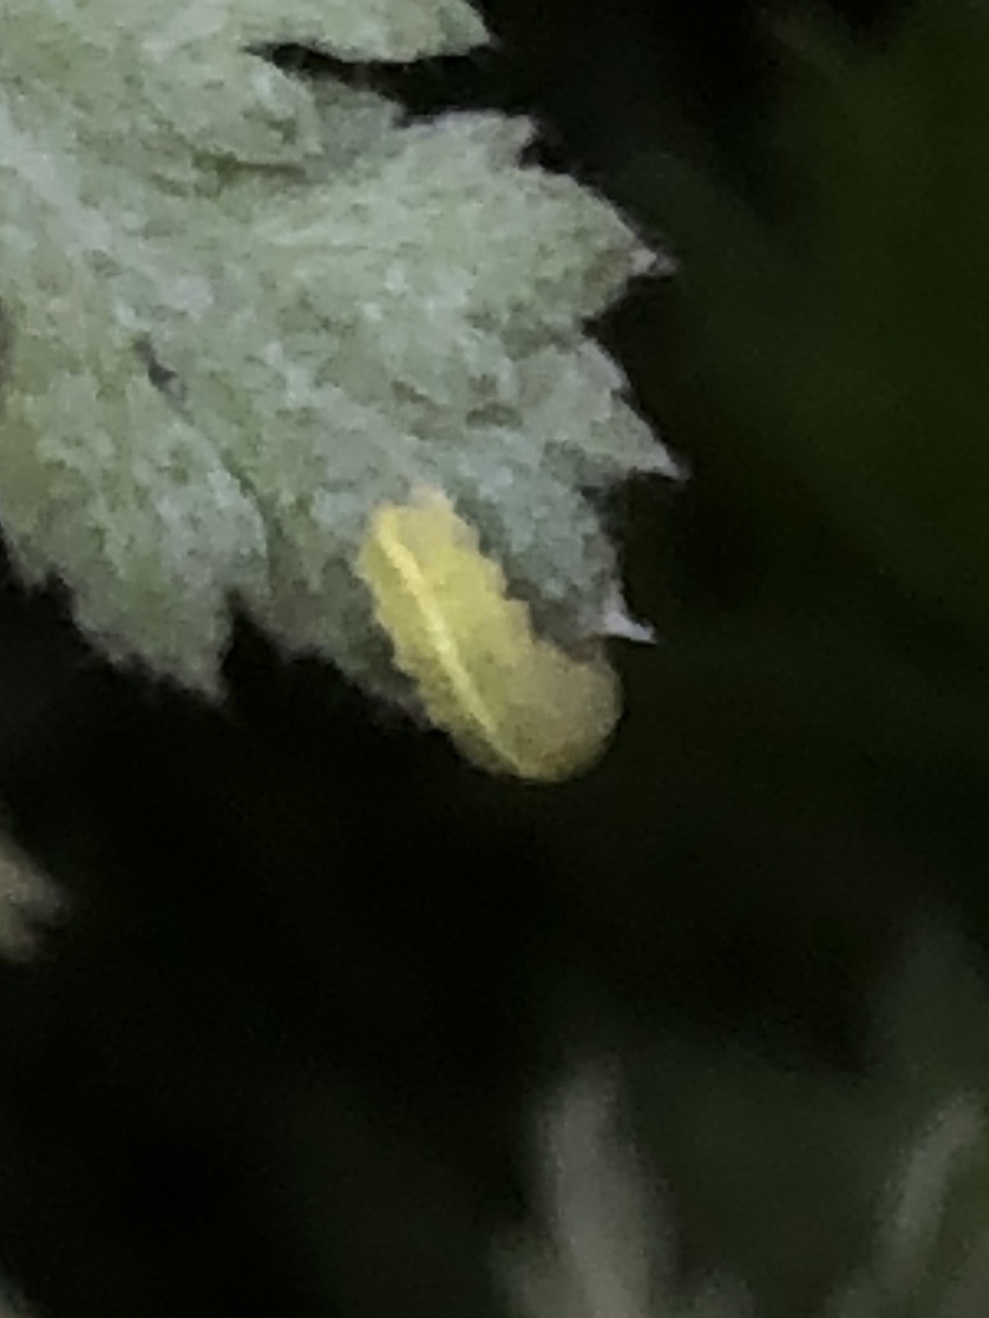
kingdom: Animalia
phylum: Arthropoda
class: Insecta
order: Diptera
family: Syrphidae
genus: Scaeva
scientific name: Scaeva affinis
